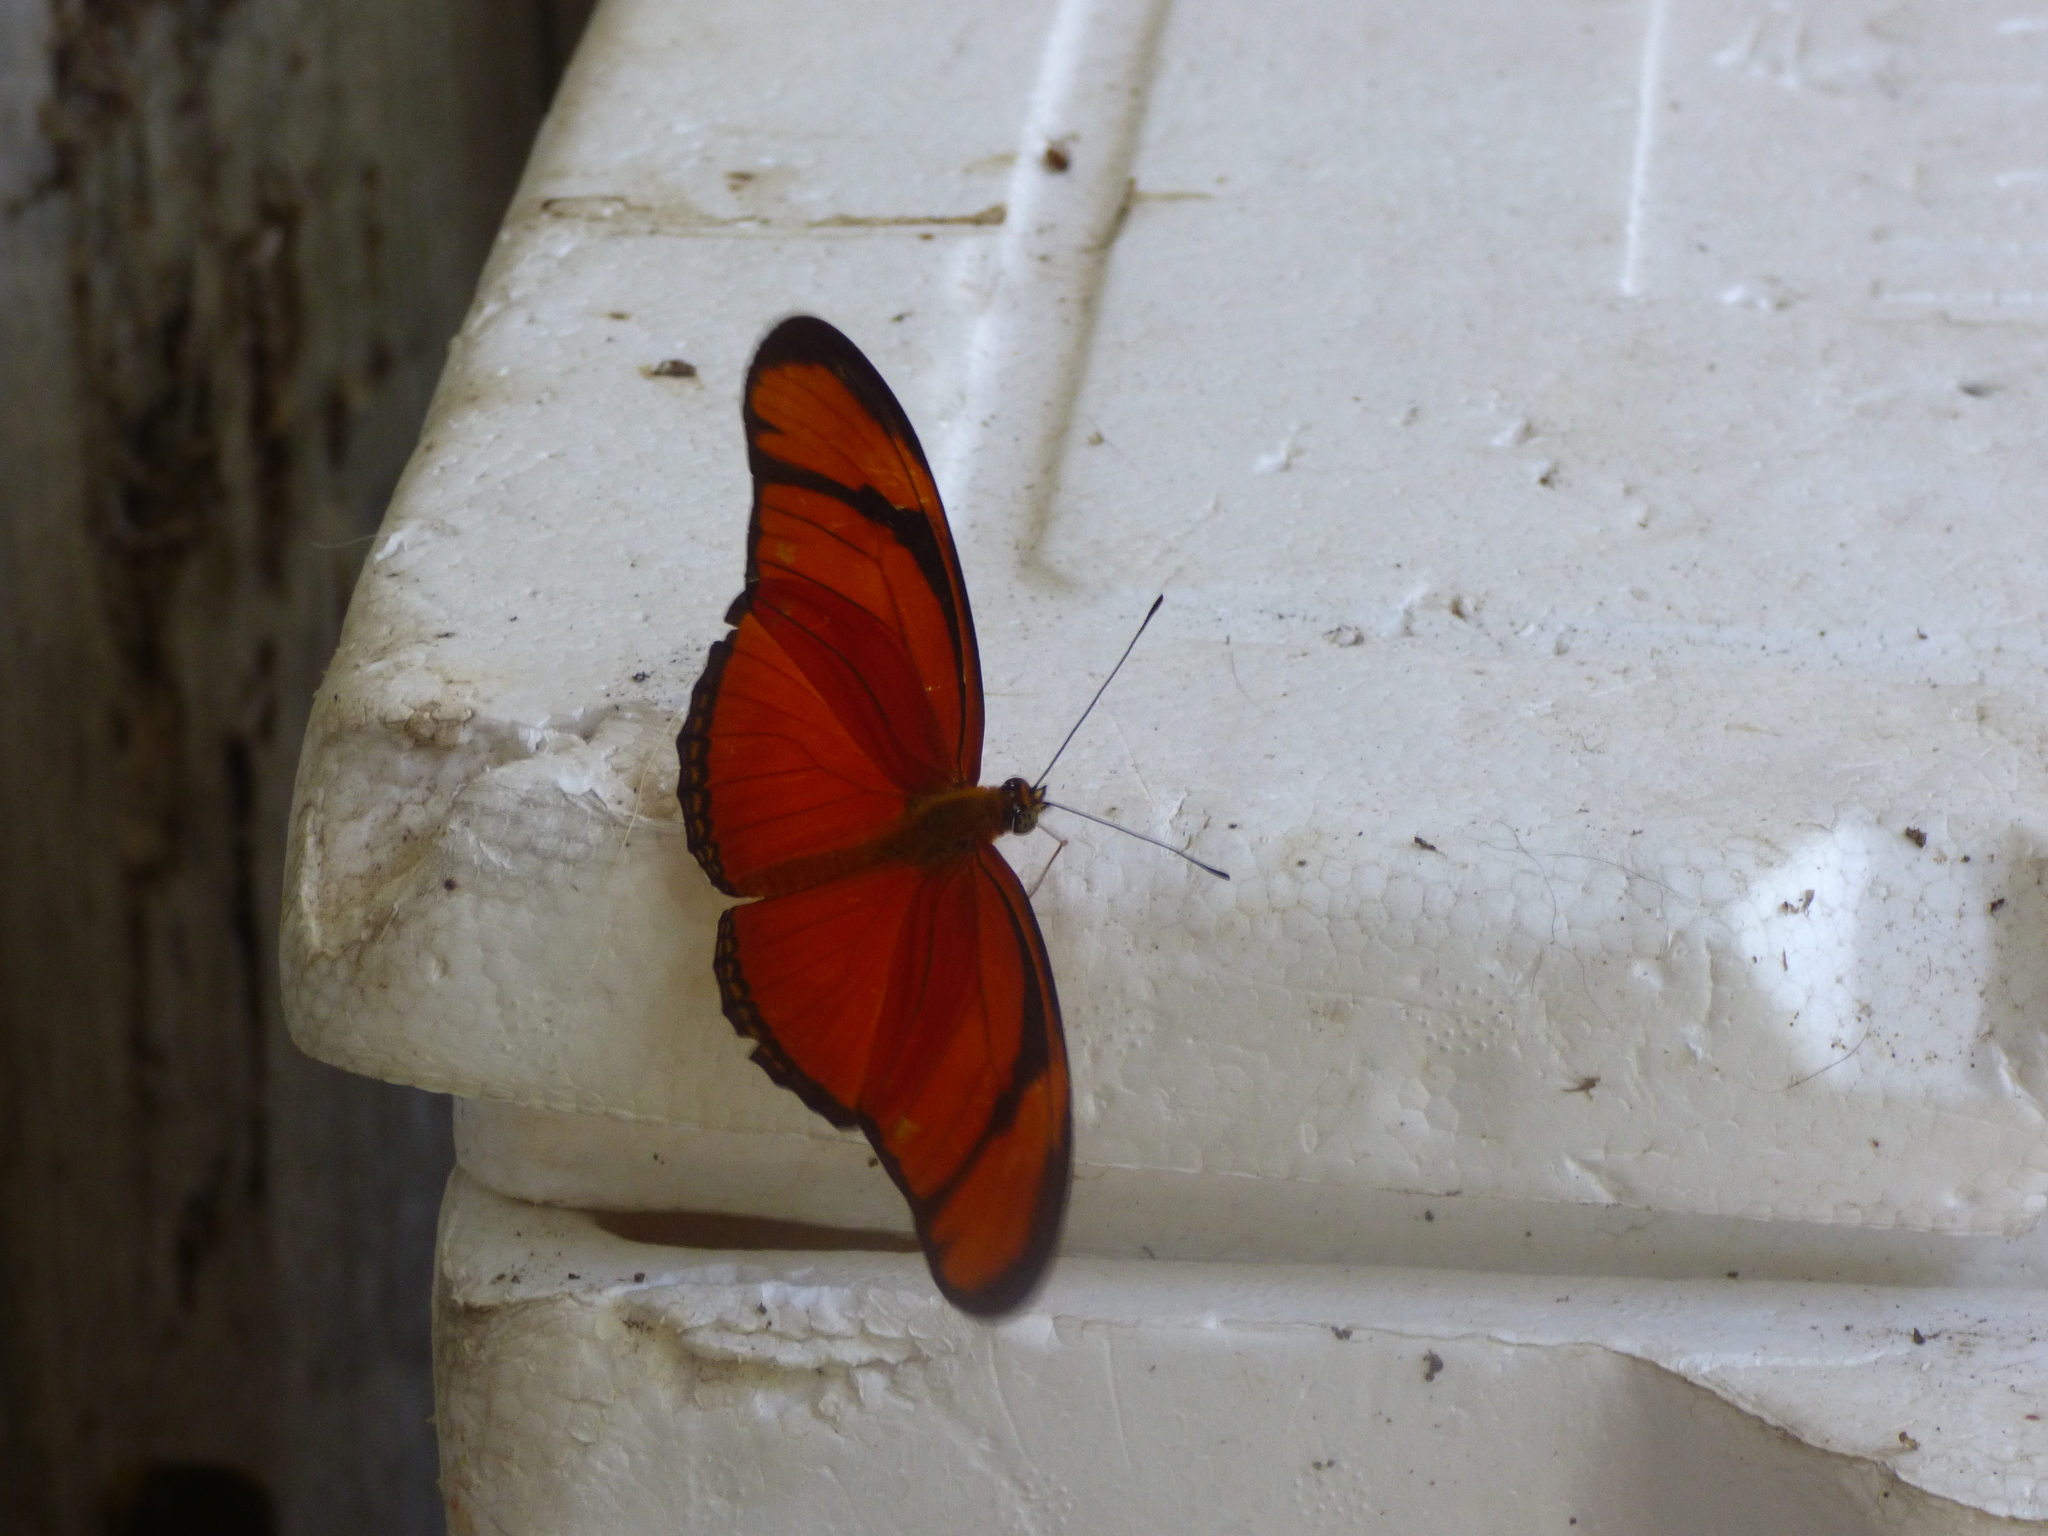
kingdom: Animalia
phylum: Arthropoda
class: Insecta
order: Lepidoptera
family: Nymphalidae
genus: Dryas
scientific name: Dryas iulia
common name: Flambeau
